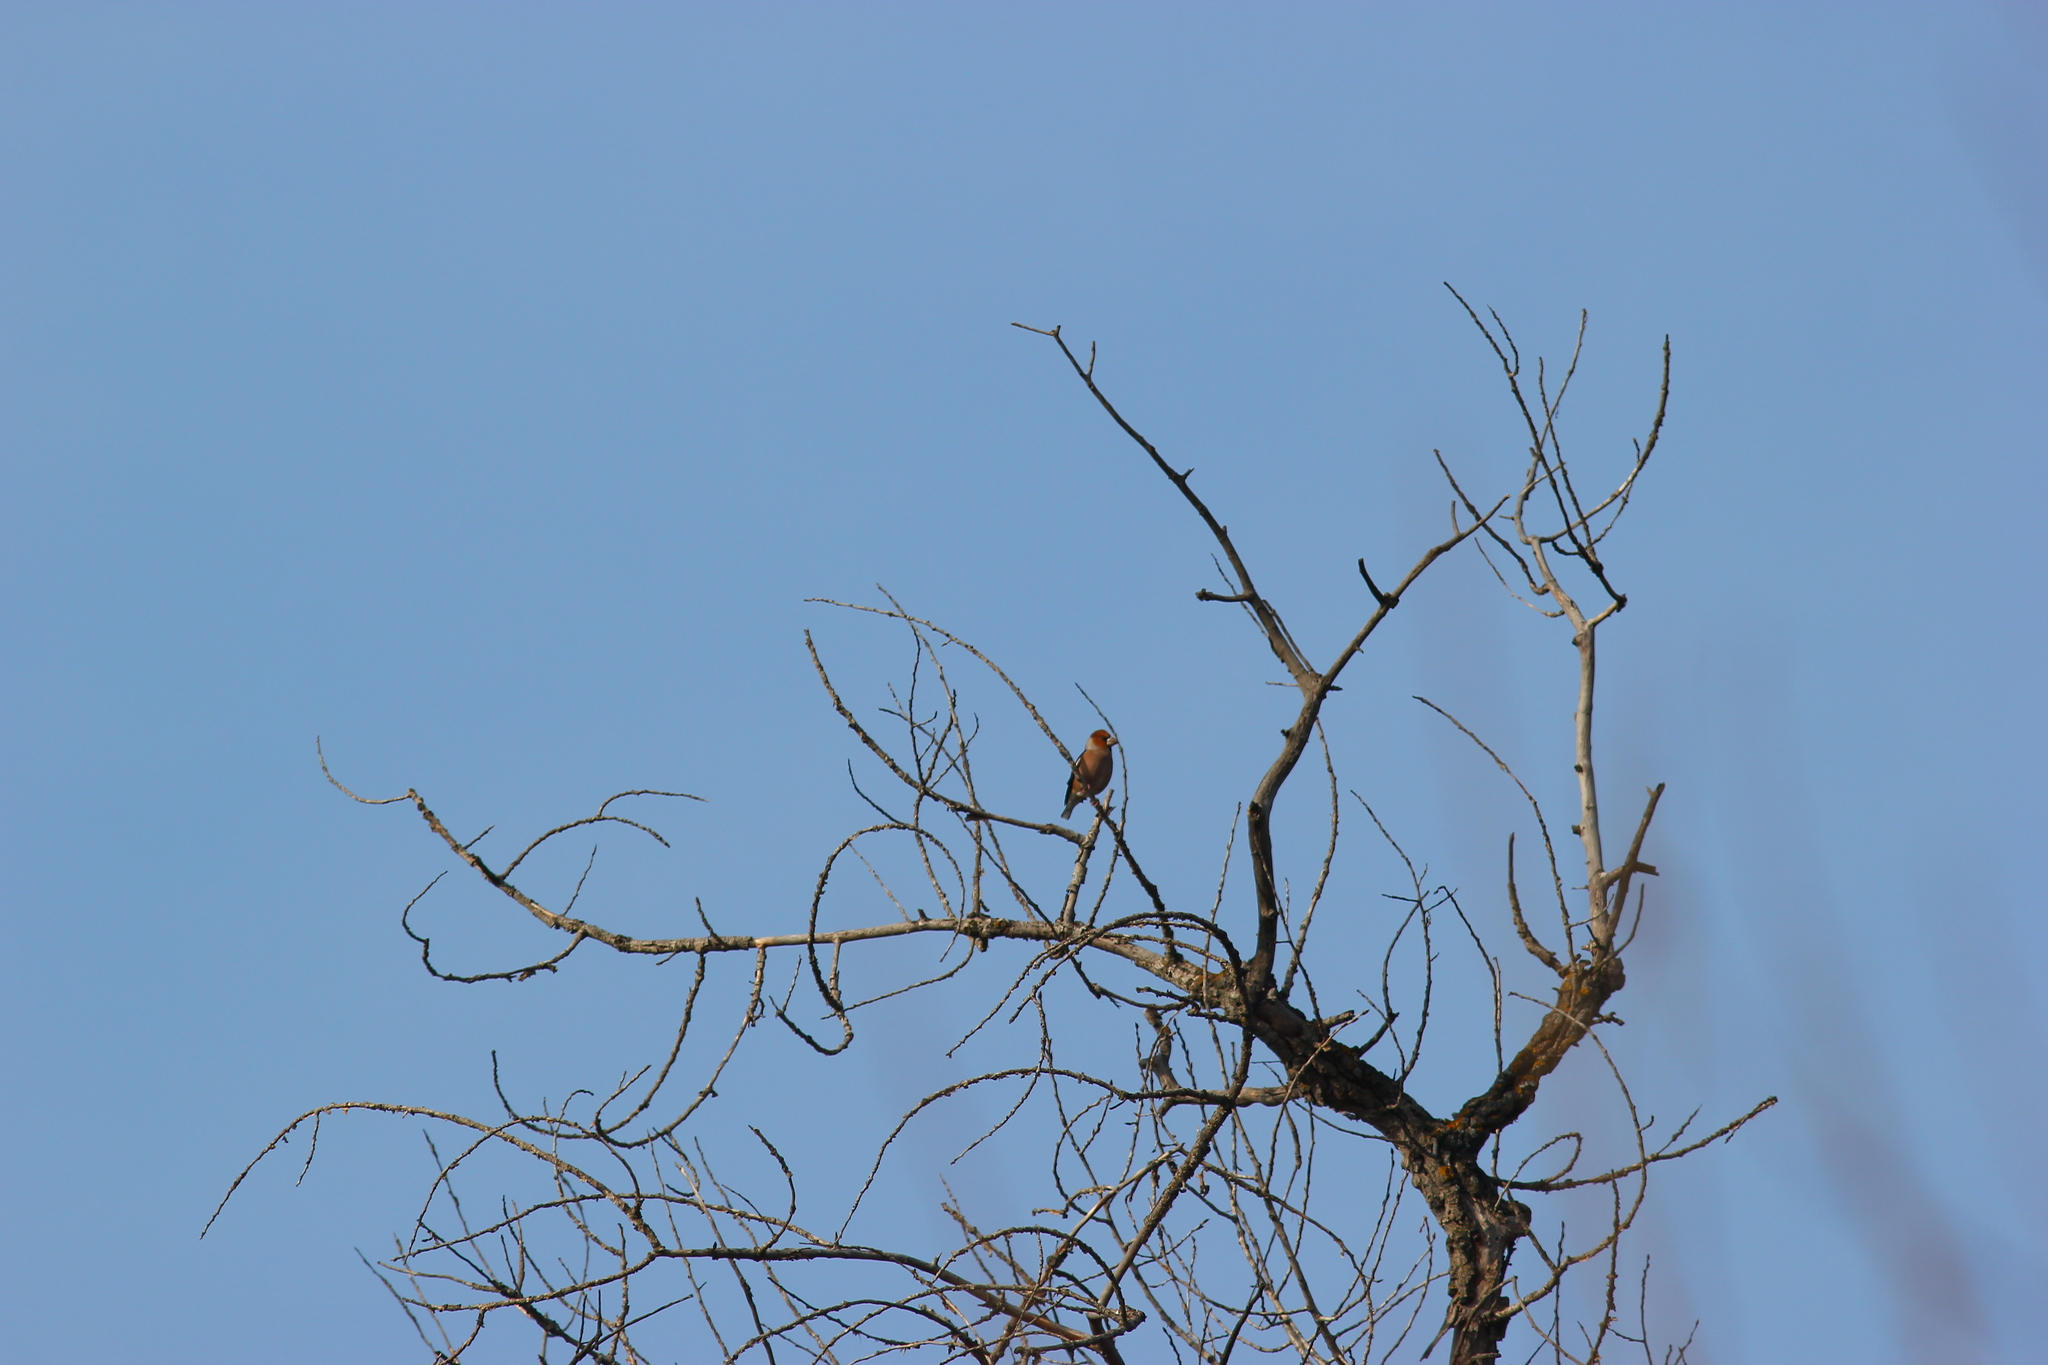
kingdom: Animalia
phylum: Chordata
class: Aves
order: Passeriformes
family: Fringillidae
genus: Coccothraustes
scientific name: Coccothraustes coccothraustes
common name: Hawfinch
